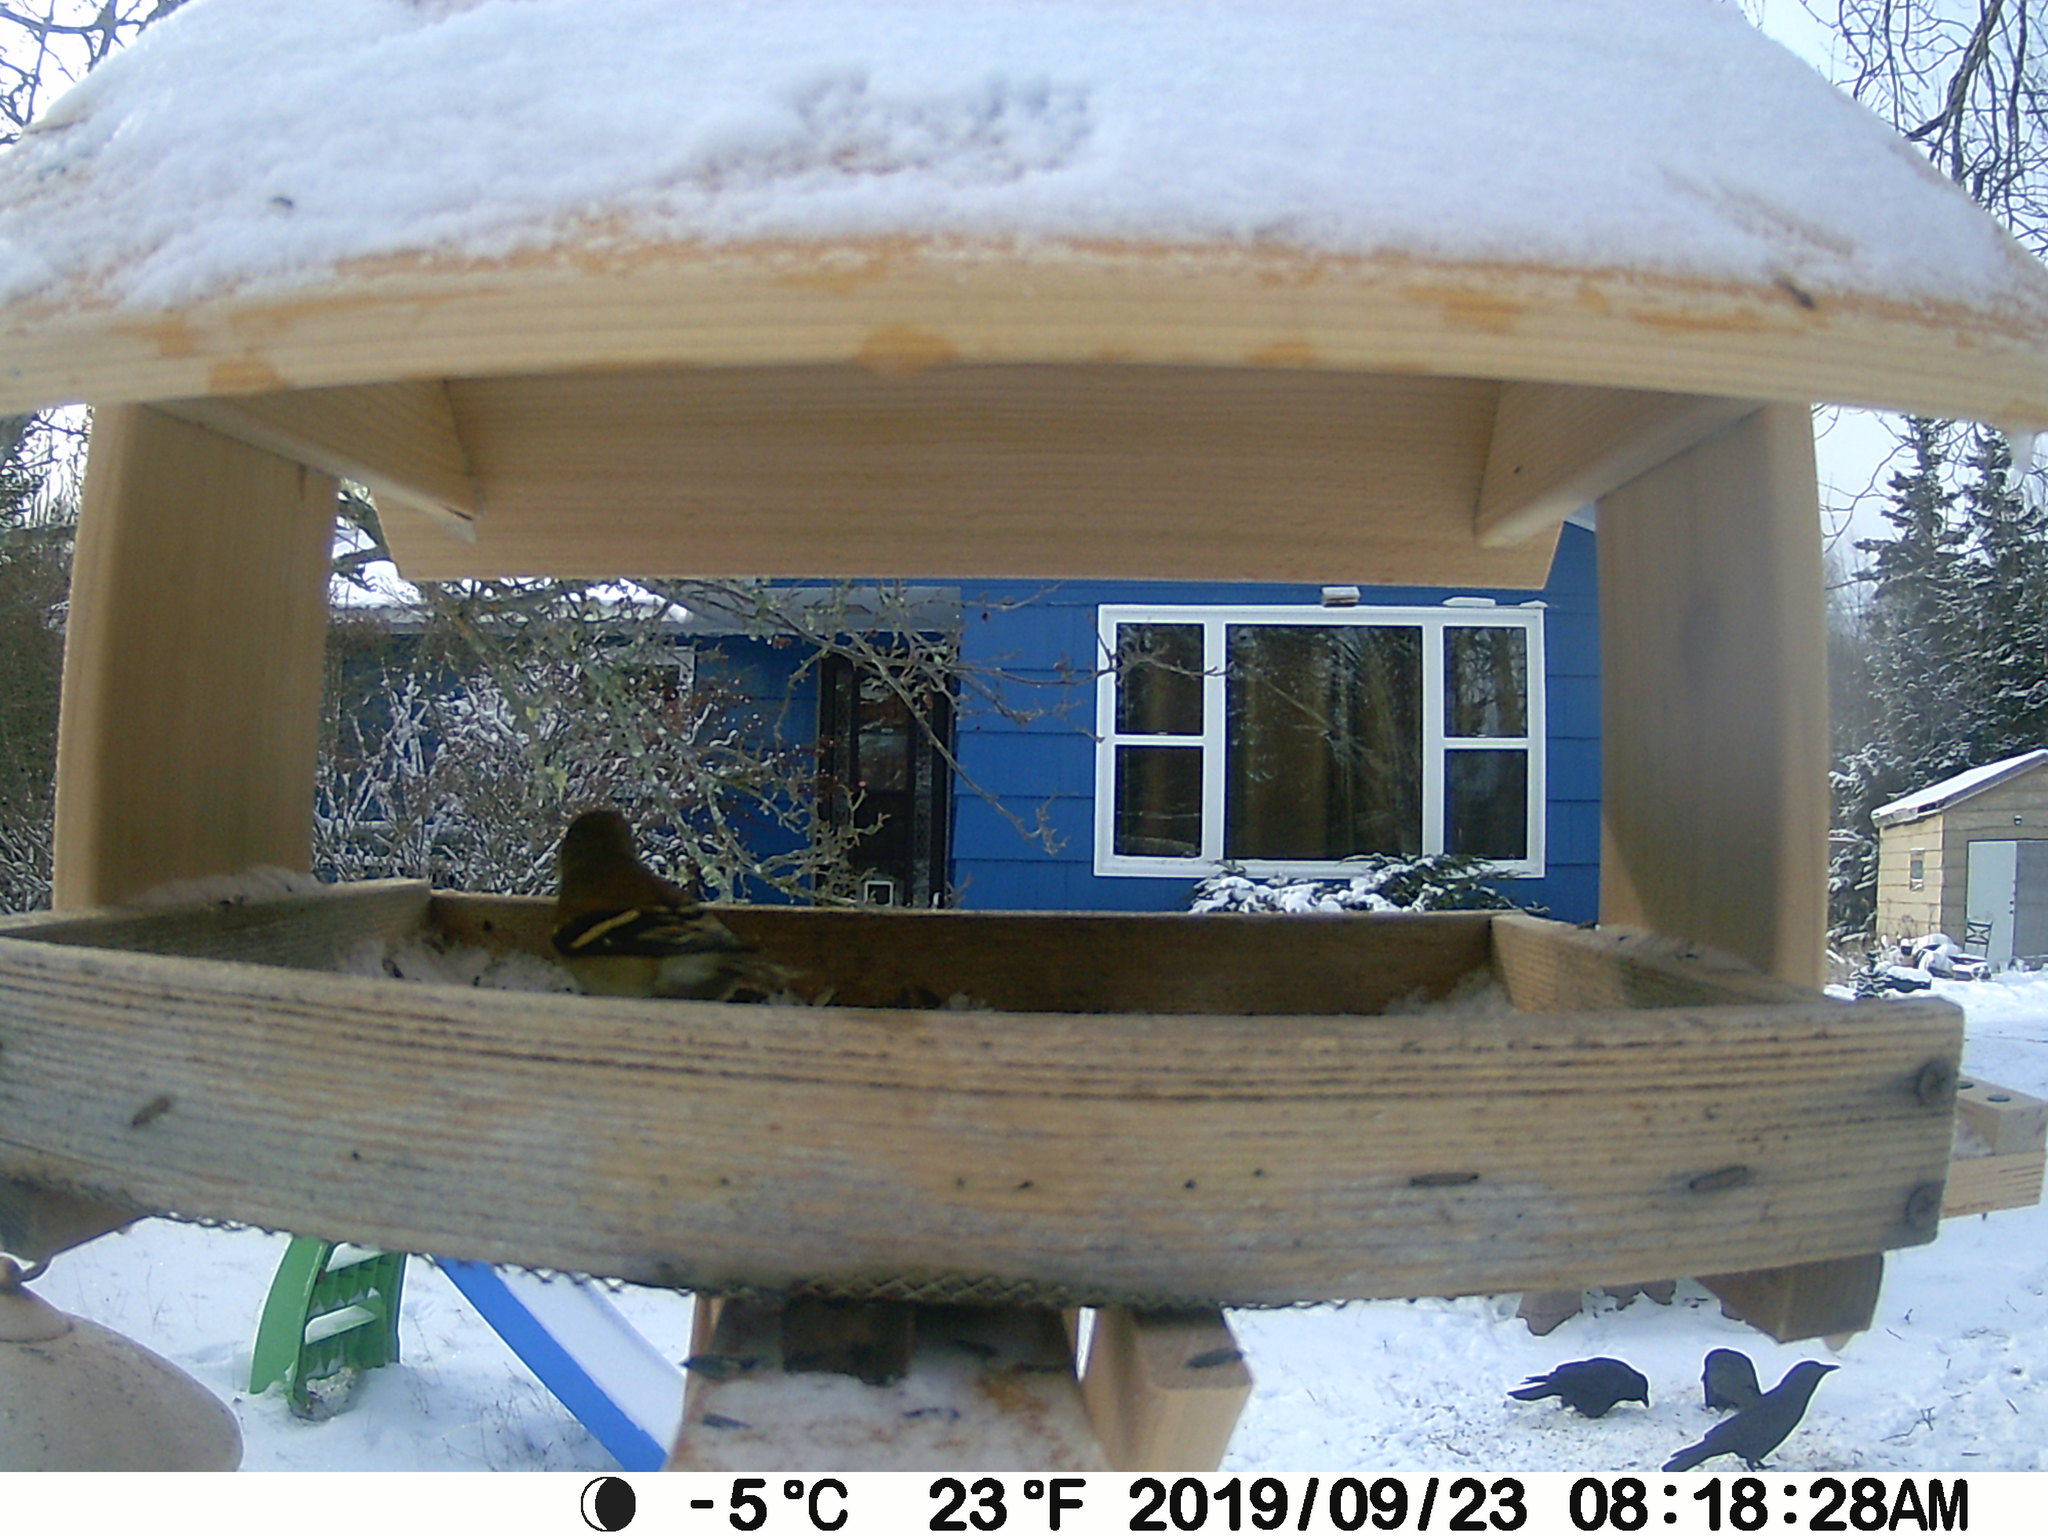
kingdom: Animalia
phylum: Chordata
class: Aves
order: Passeriformes
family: Corvidae
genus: Corvus
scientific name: Corvus brachyrhynchos
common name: American crow
